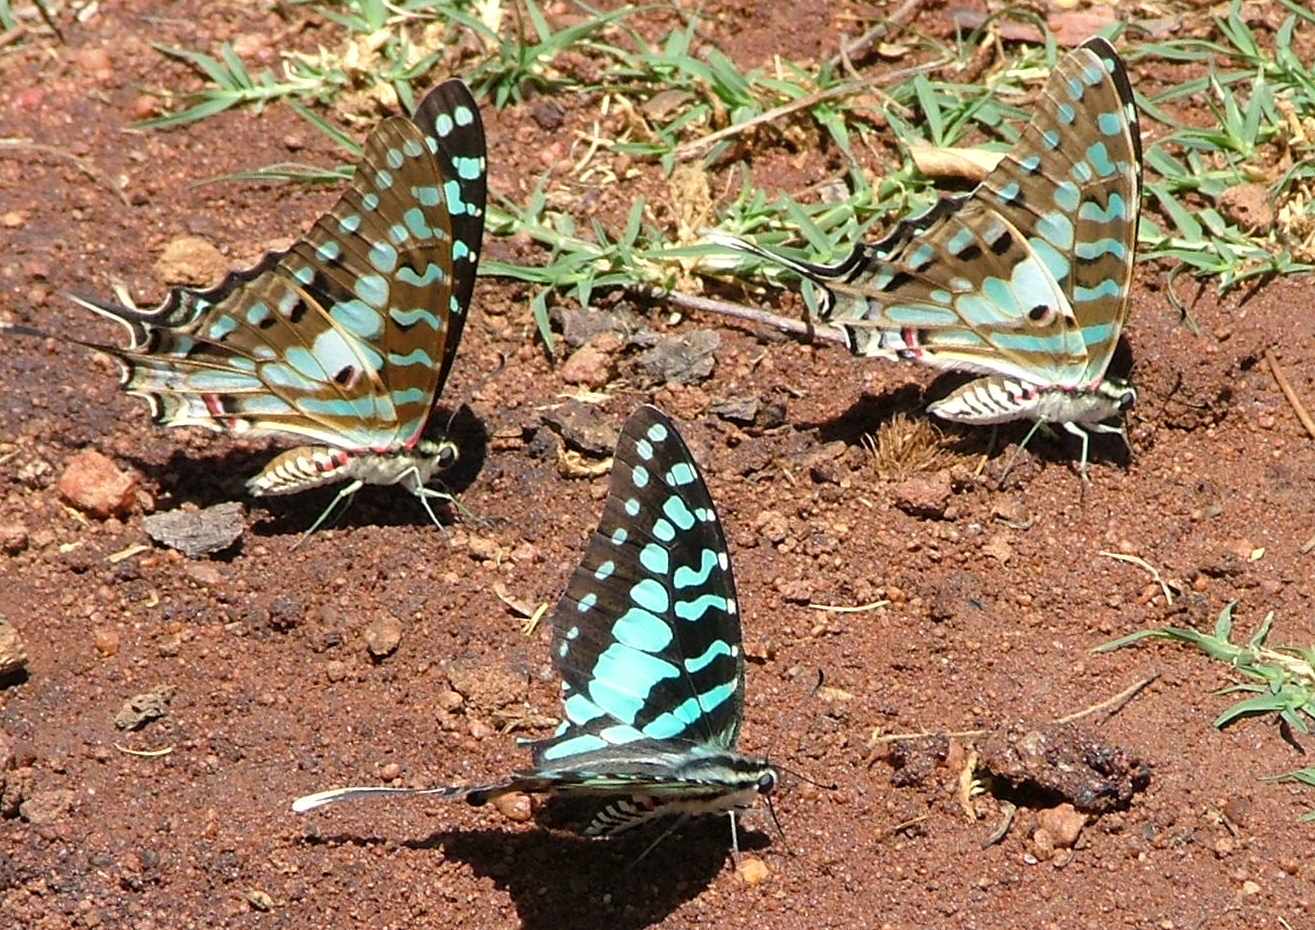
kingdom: Animalia
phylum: Arthropoda
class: Insecta
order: Lepidoptera
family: Papilionidae
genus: Graphium
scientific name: Graphium antheus
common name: Large striped swordtail
